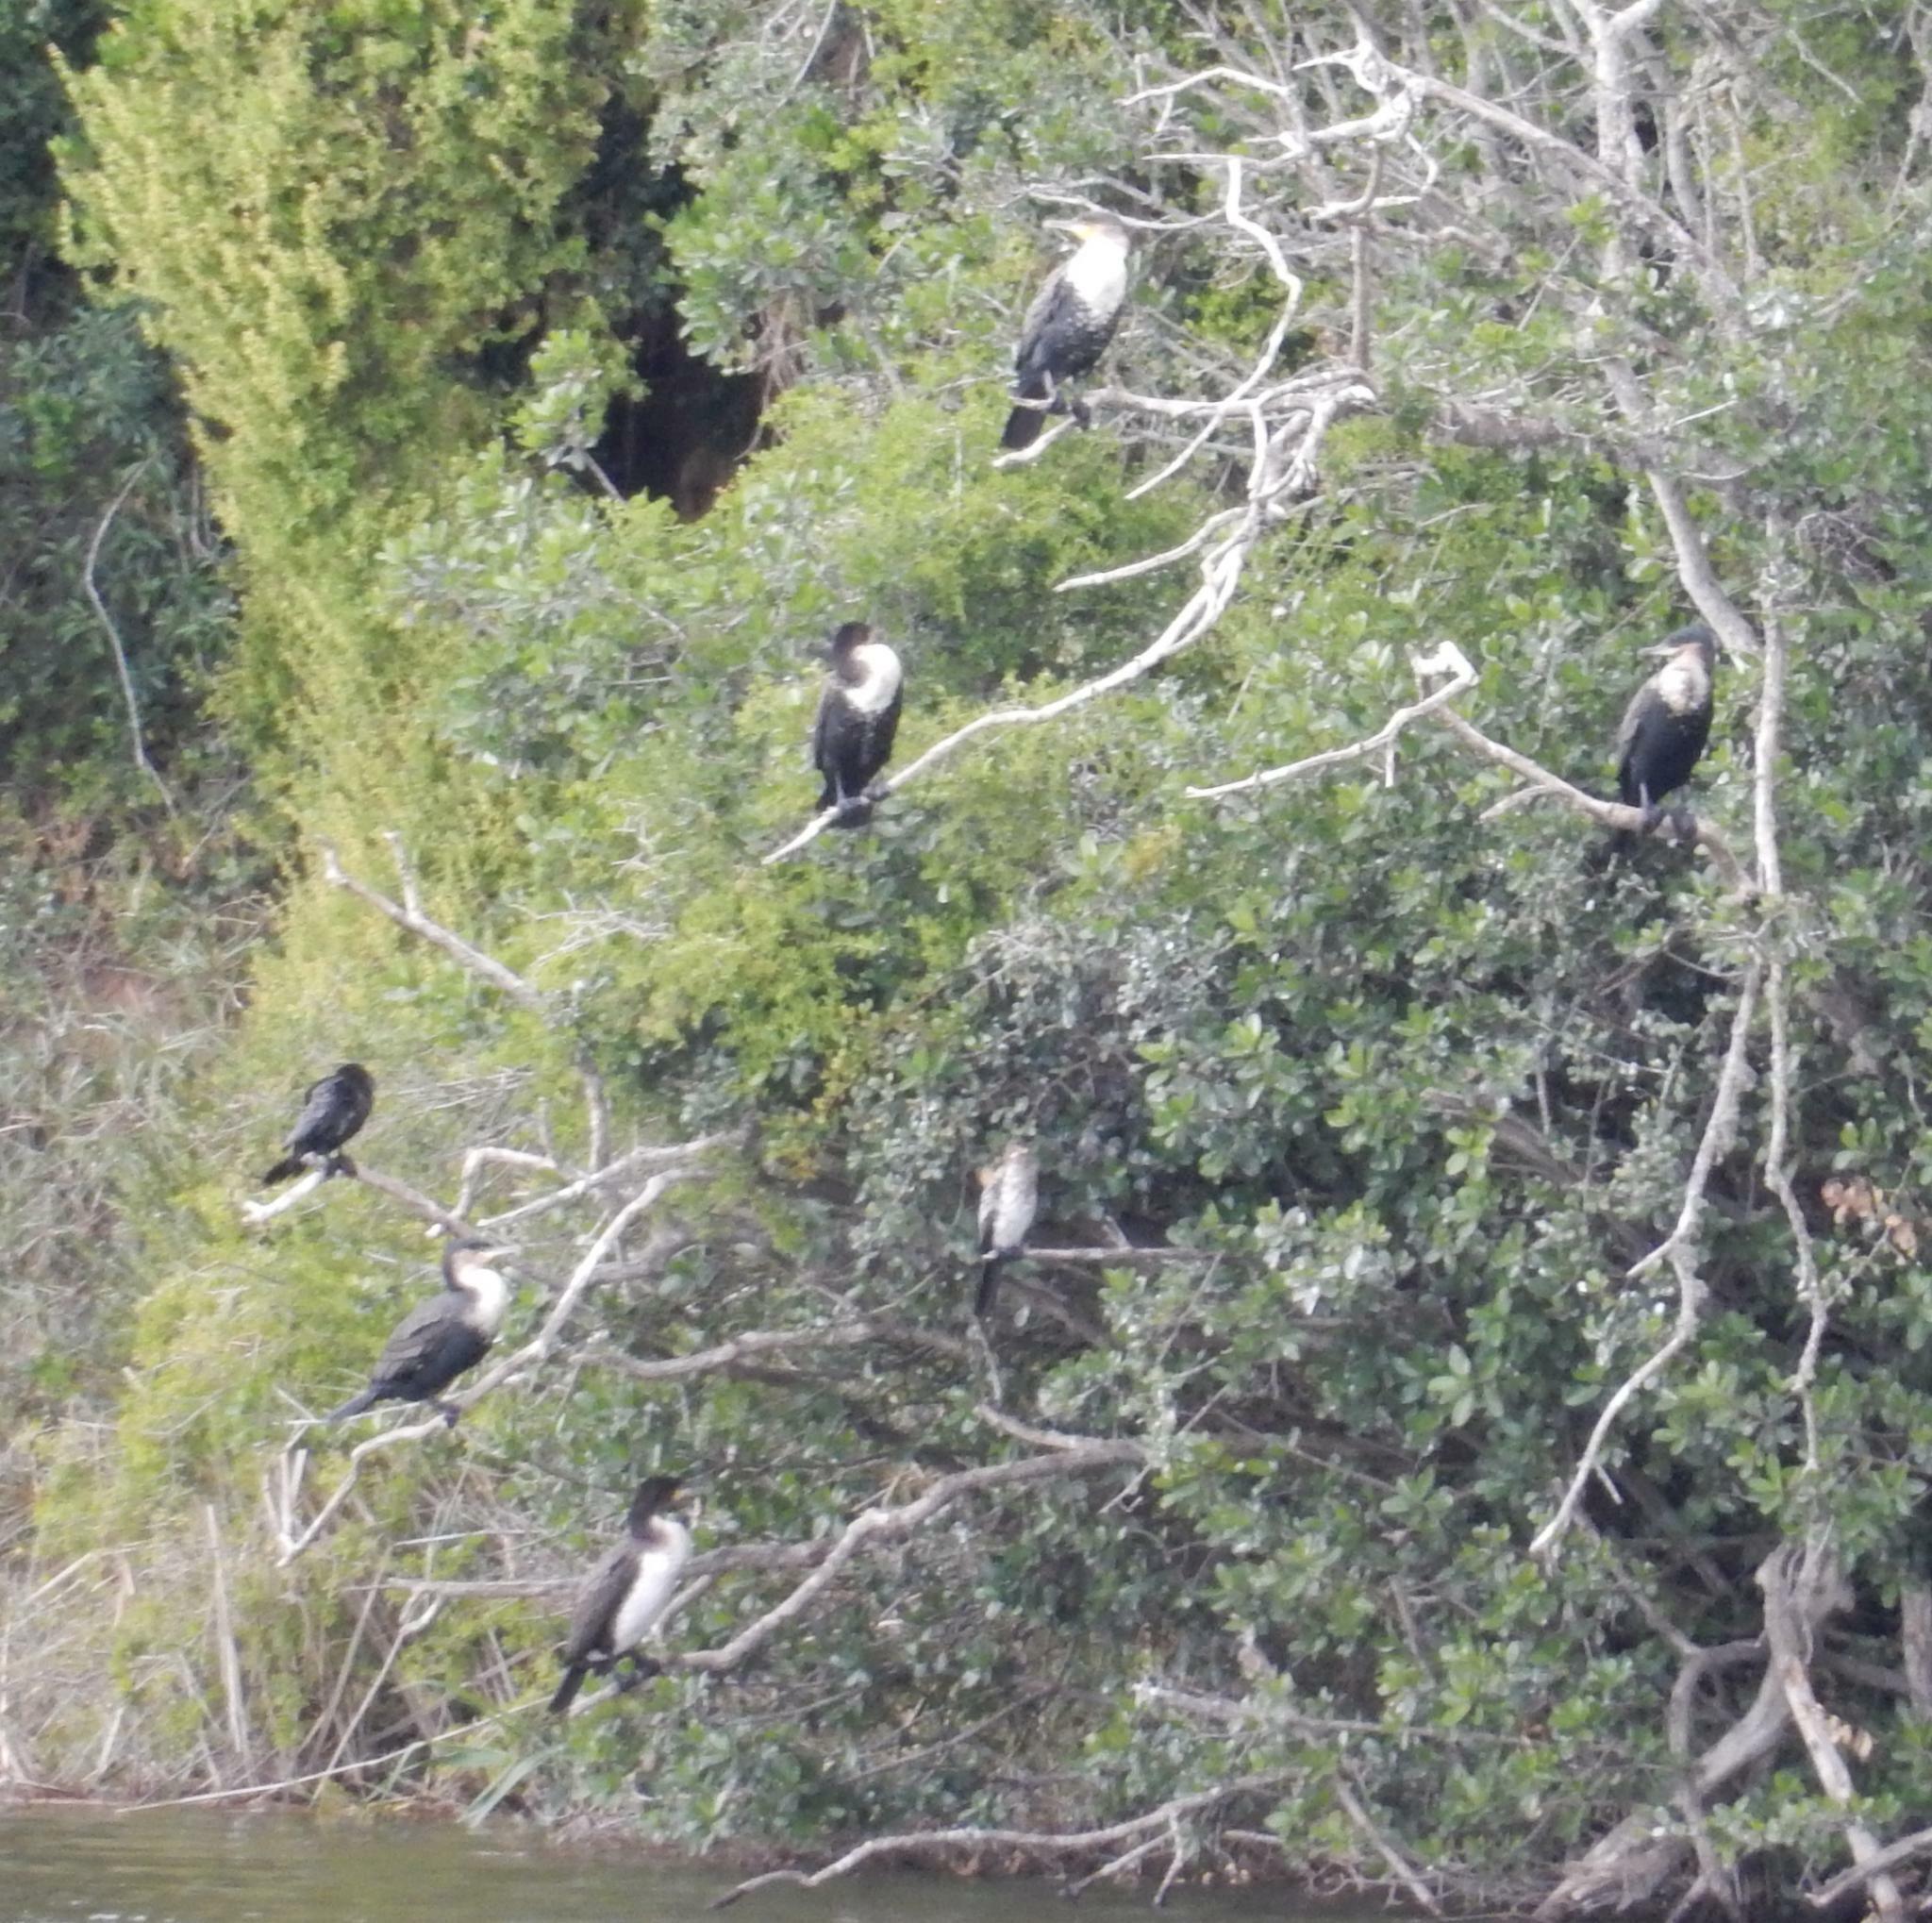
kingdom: Animalia
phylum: Chordata
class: Aves
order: Suliformes
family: Phalacrocoracidae
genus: Phalacrocorax
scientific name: Phalacrocorax carbo
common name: Great cormorant
